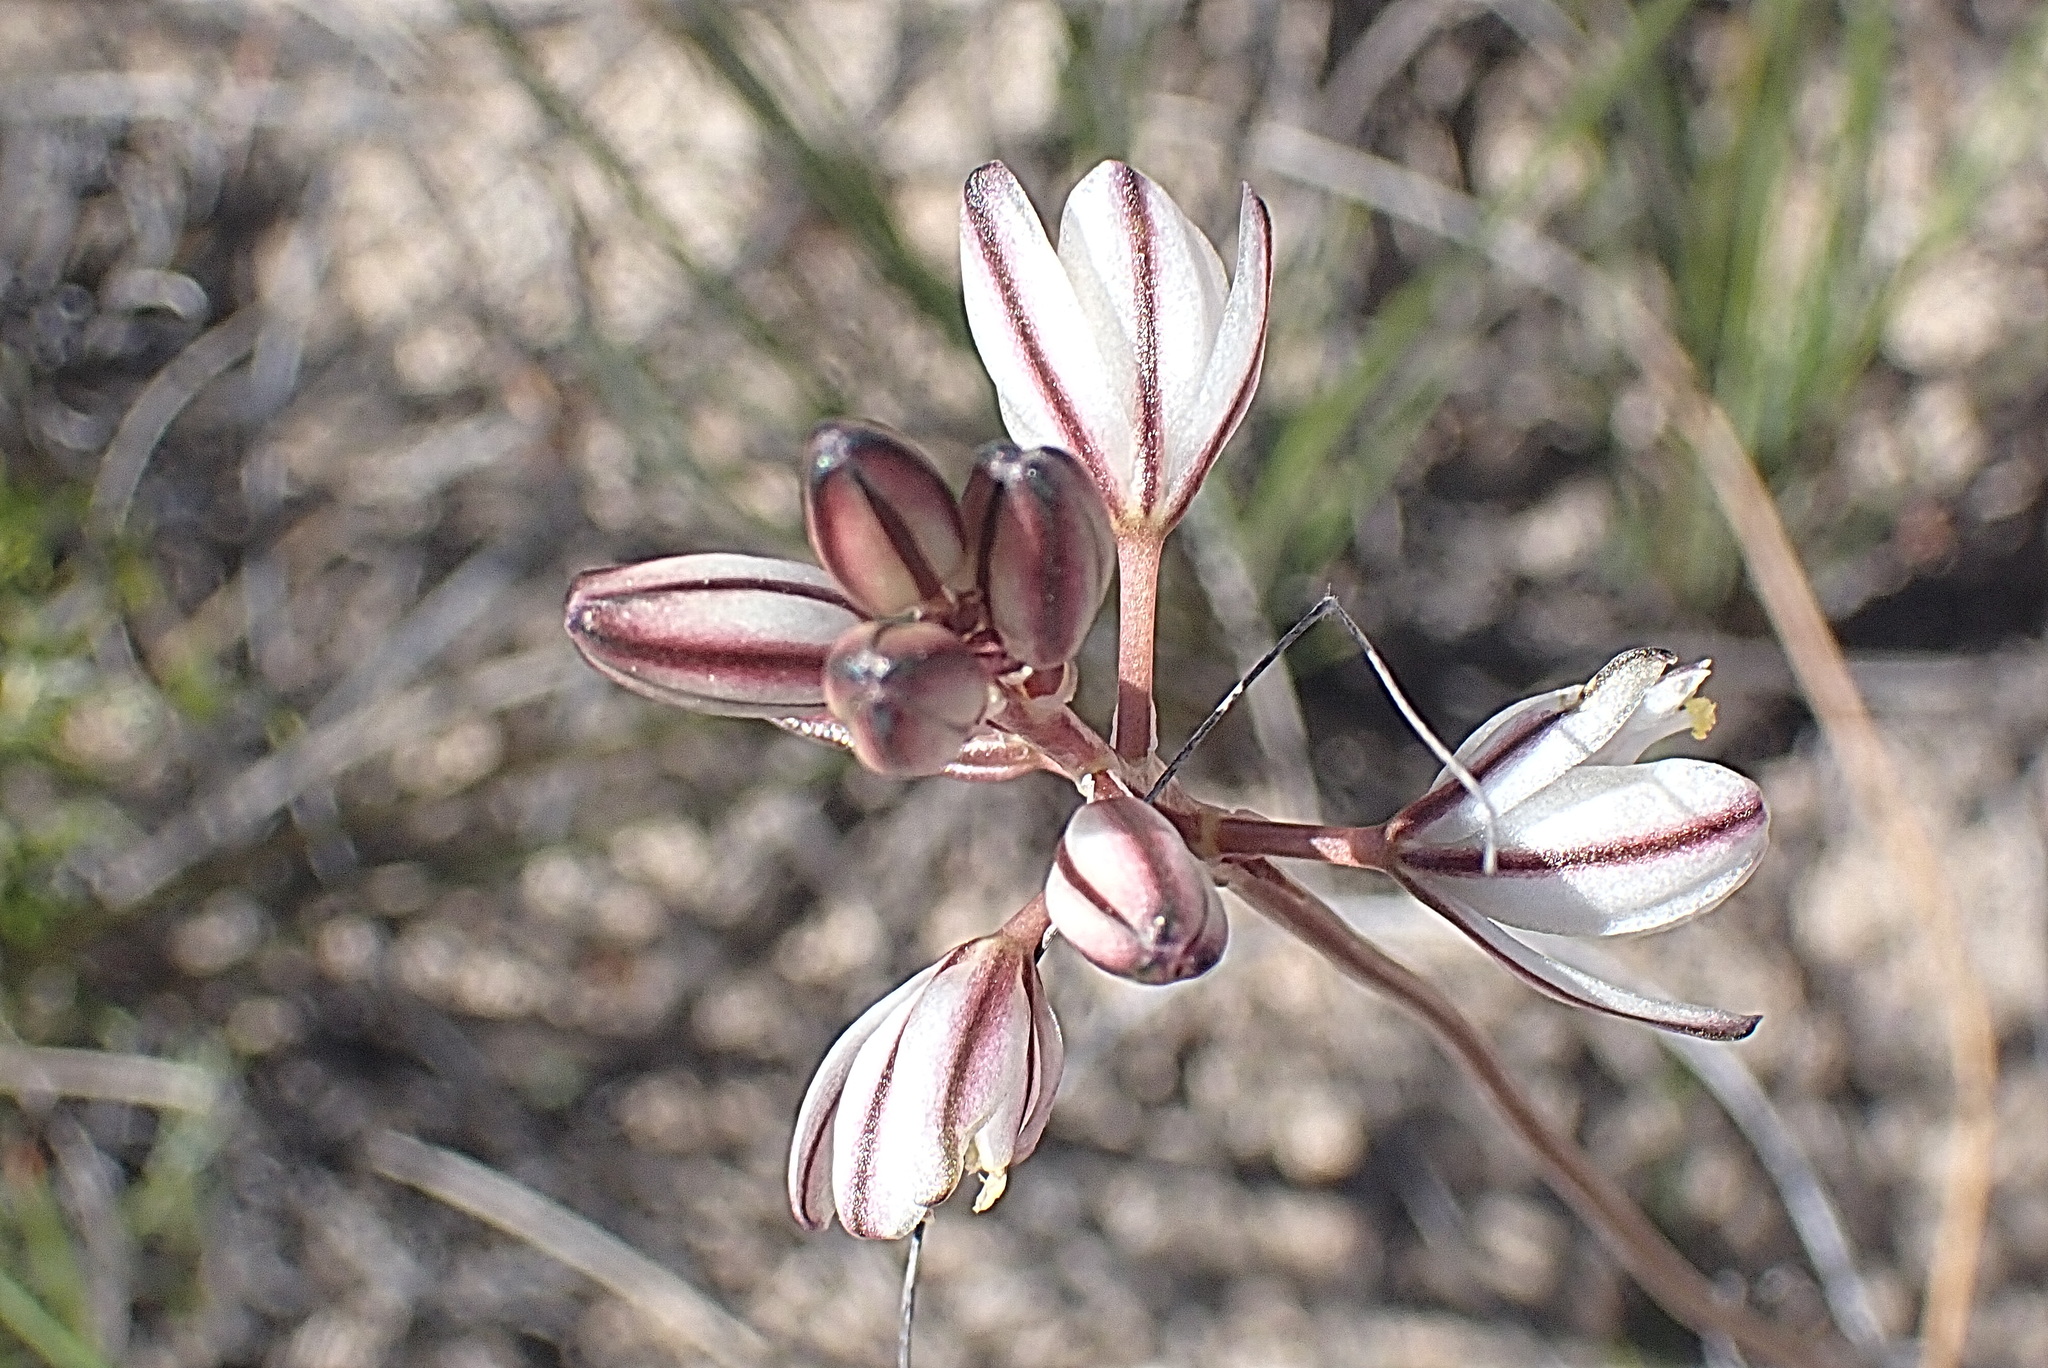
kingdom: Plantae
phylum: Tracheophyta
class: Liliopsida
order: Asparagales
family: Asparagaceae
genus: Drimia
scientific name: Drimia exuviata
